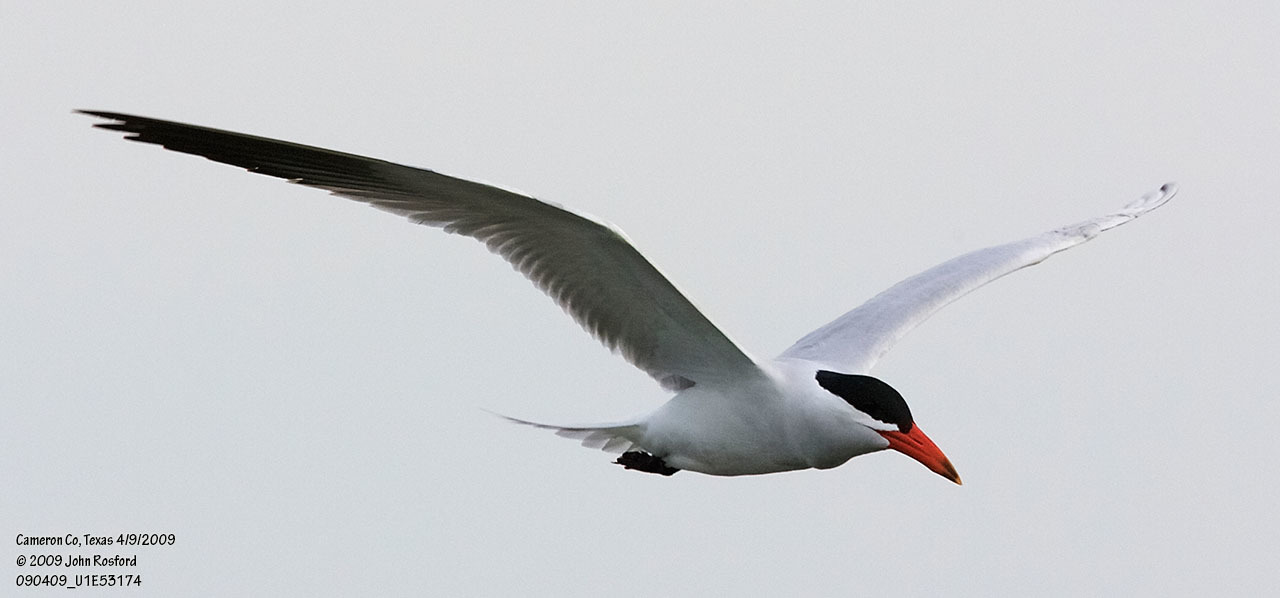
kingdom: Animalia
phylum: Chordata
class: Aves
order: Charadriiformes
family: Laridae
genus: Hydroprogne
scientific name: Hydroprogne caspia
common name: Caspian tern
